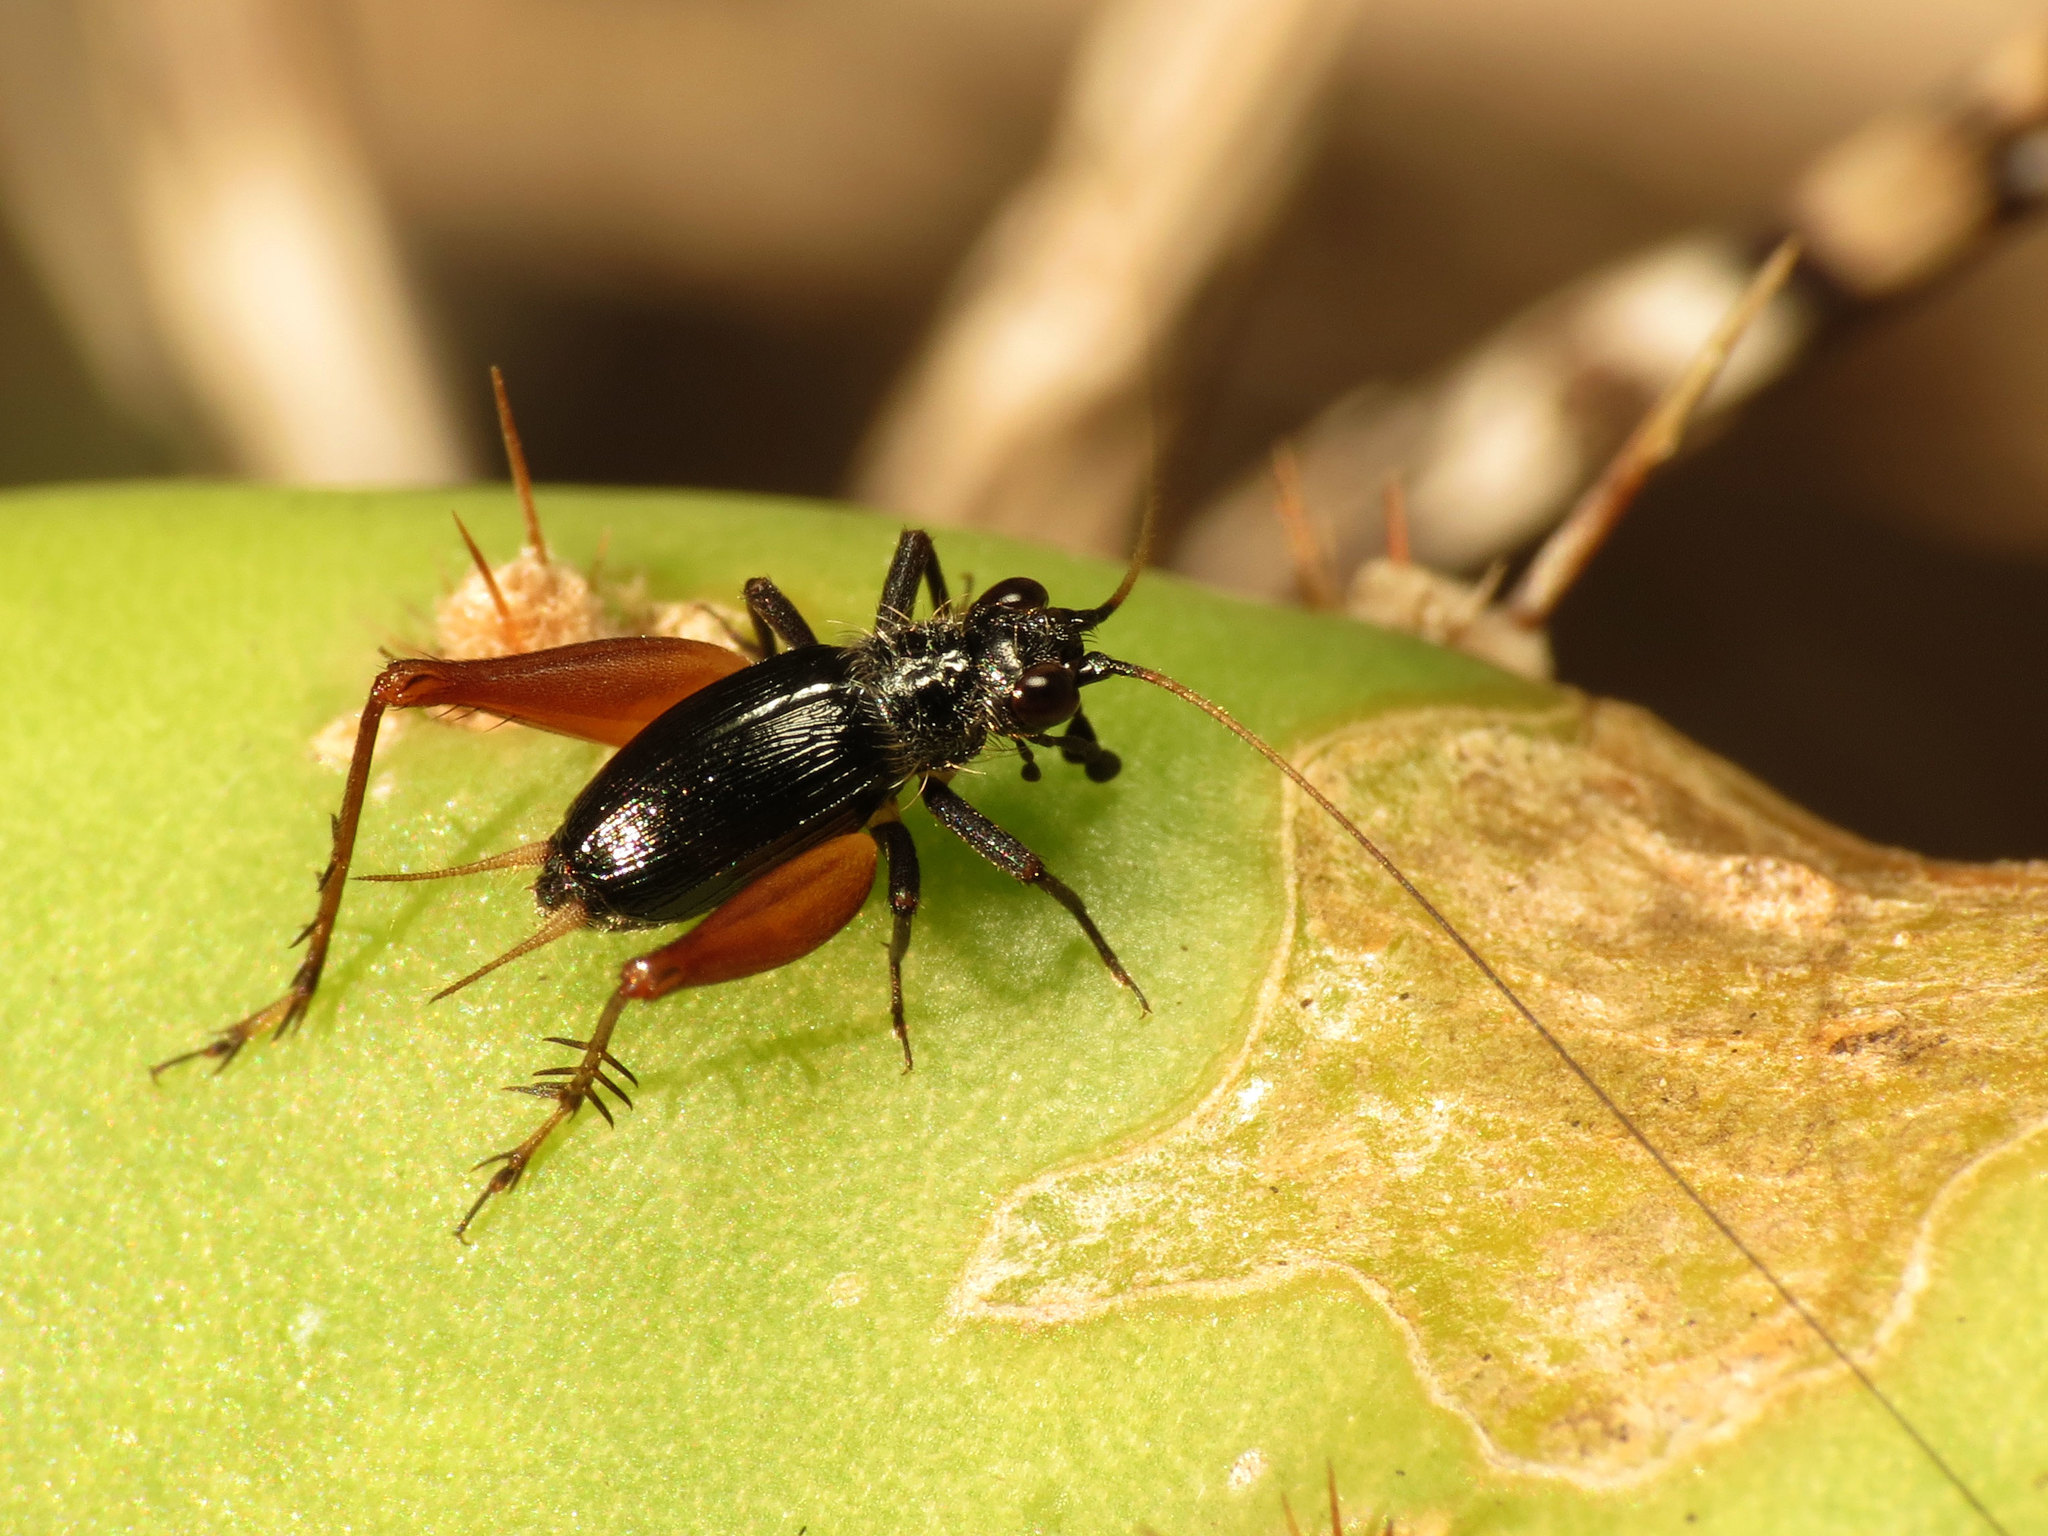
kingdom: Animalia
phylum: Arthropoda
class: Insecta
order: Orthoptera
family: Trigonidiidae
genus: Trigonidium
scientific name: Trigonidium cicindeloides
